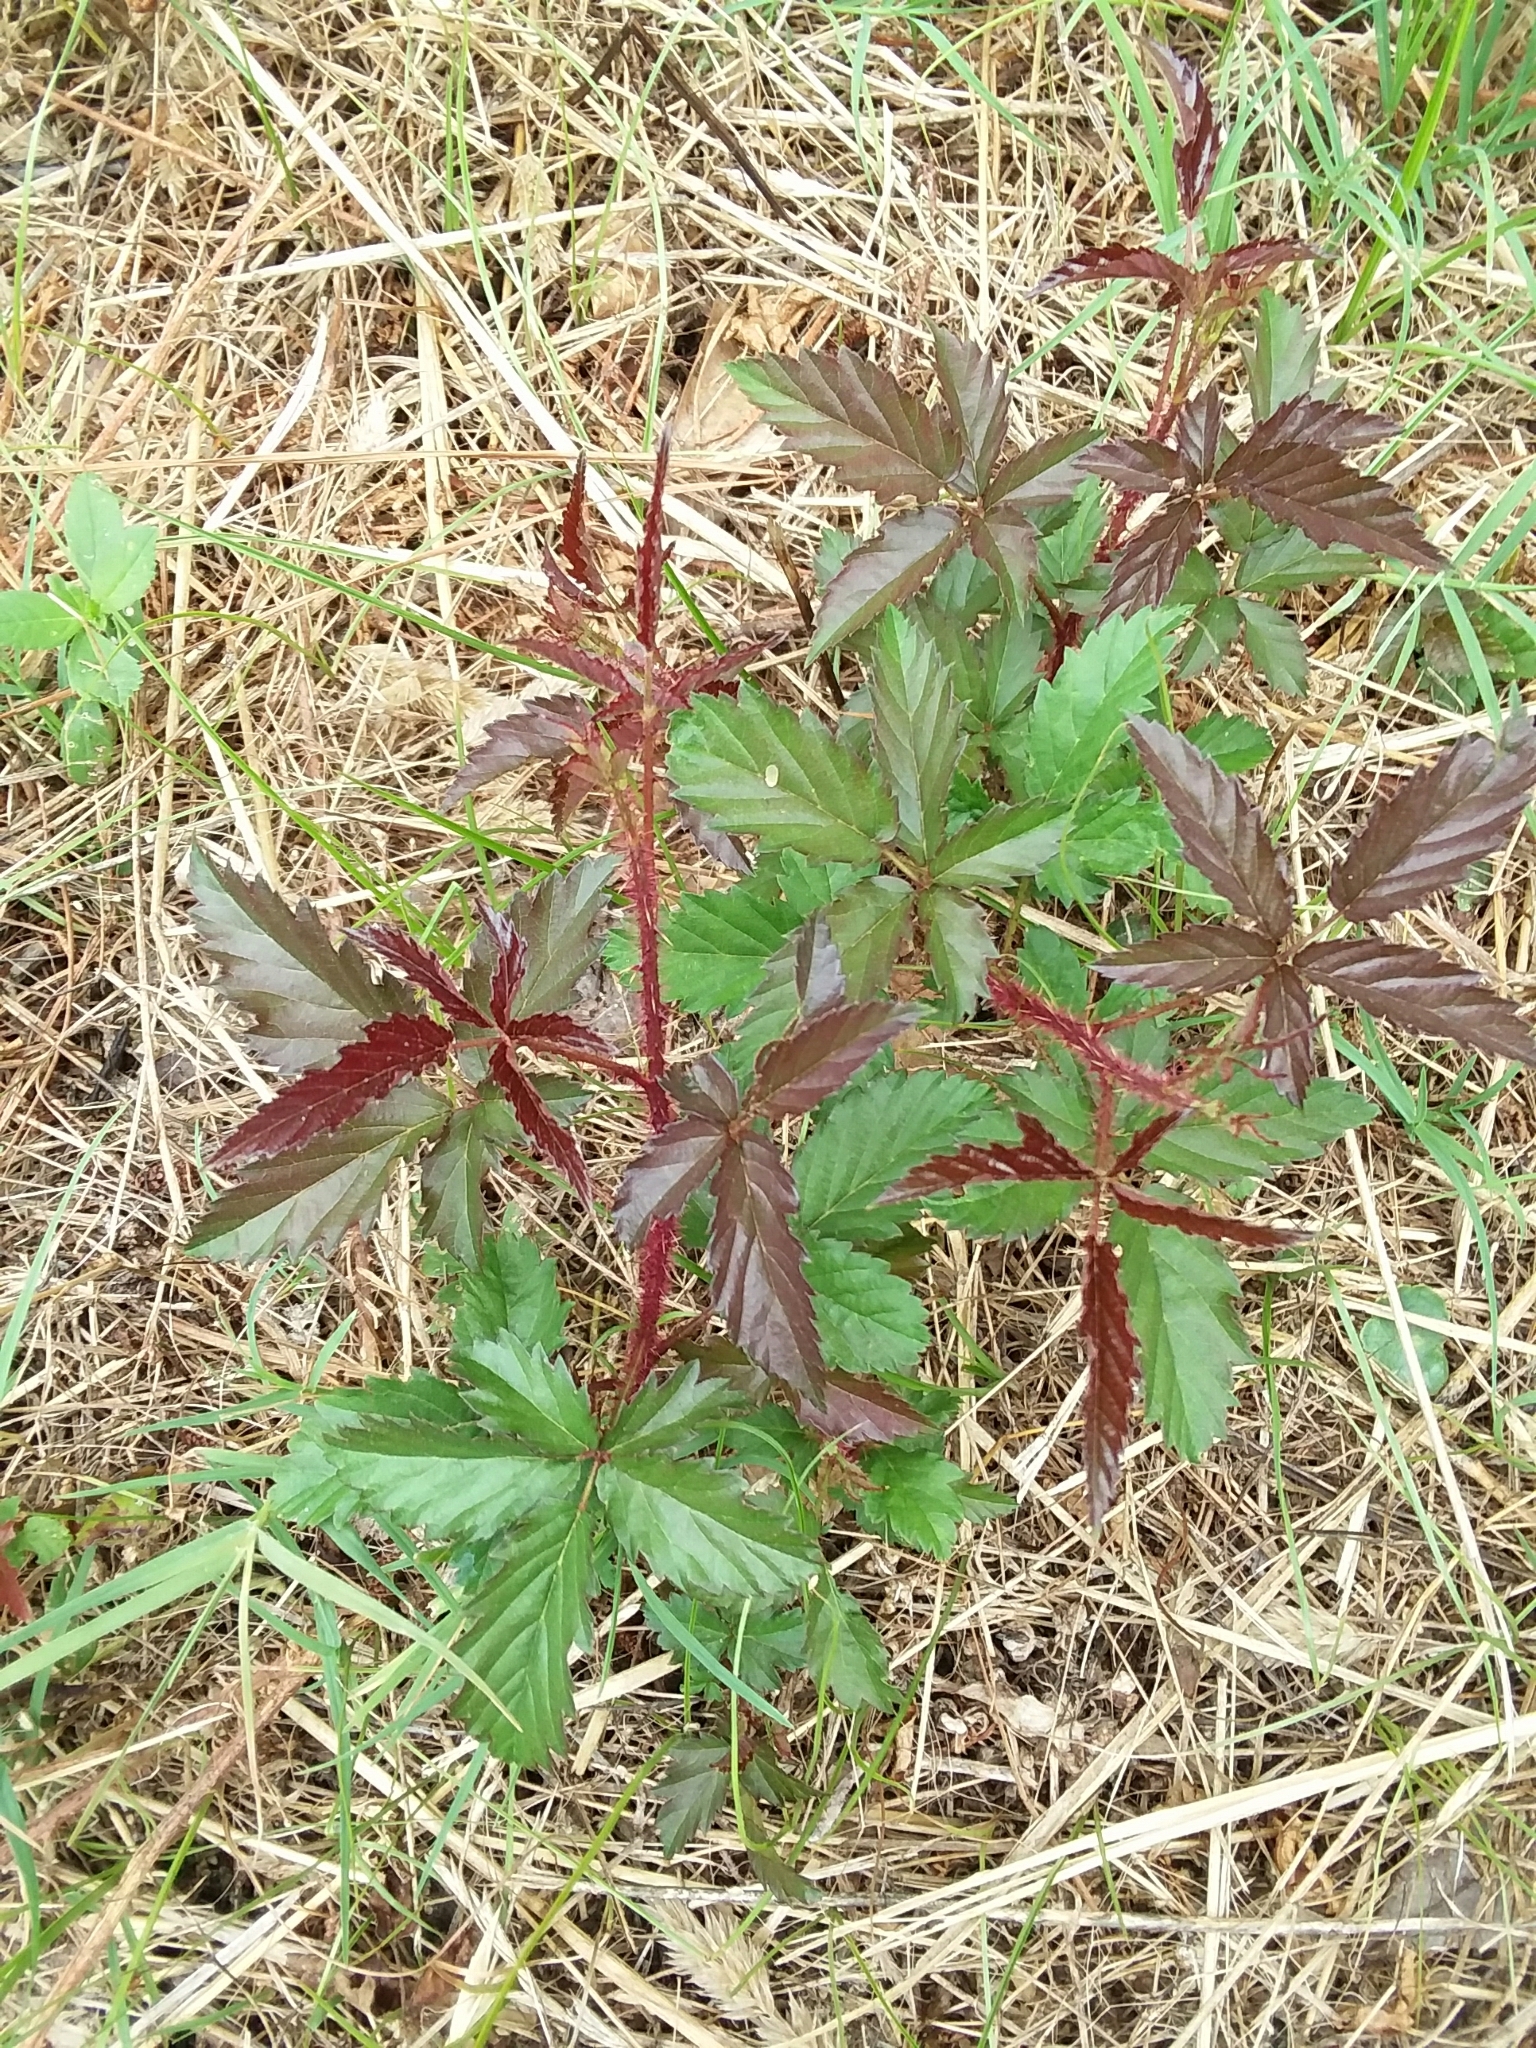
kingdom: Plantae
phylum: Tracheophyta
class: Magnoliopsida
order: Rosales
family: Rosaceae
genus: Rubus
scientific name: Rubus trivialis
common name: Southern dewberry
